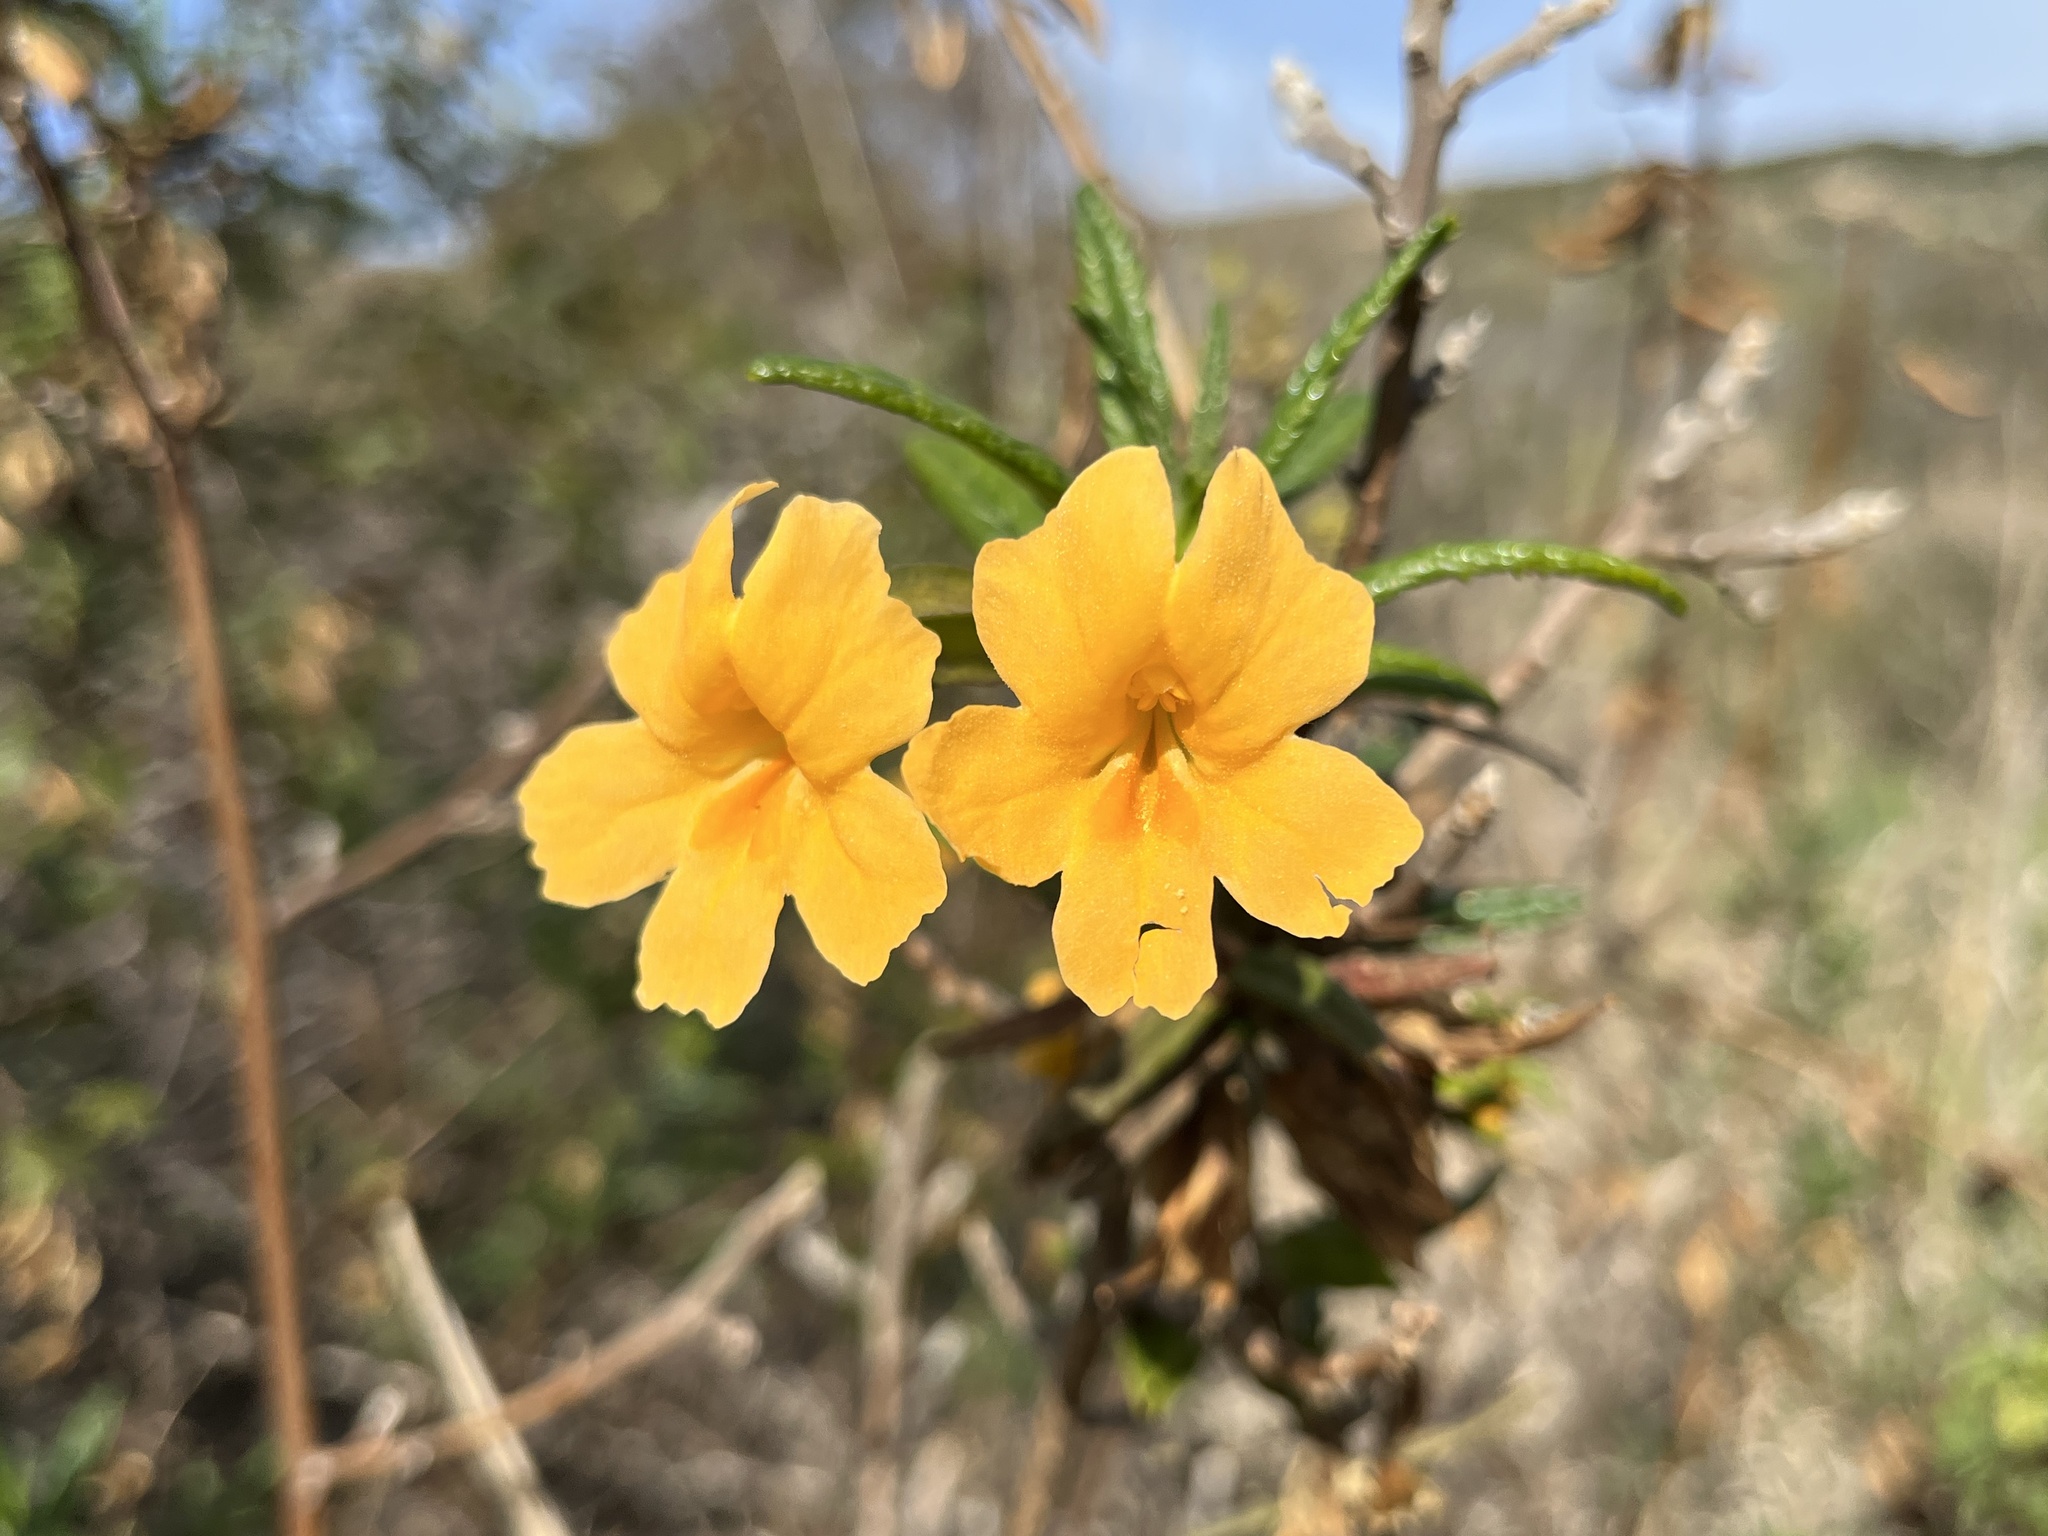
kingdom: Plantae
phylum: Tracheophyta
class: Magnoliopsida
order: Lamiales
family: Phrymaceae
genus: Diplacus
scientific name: Diplacus aurantiacus
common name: Bush monkey-flower
